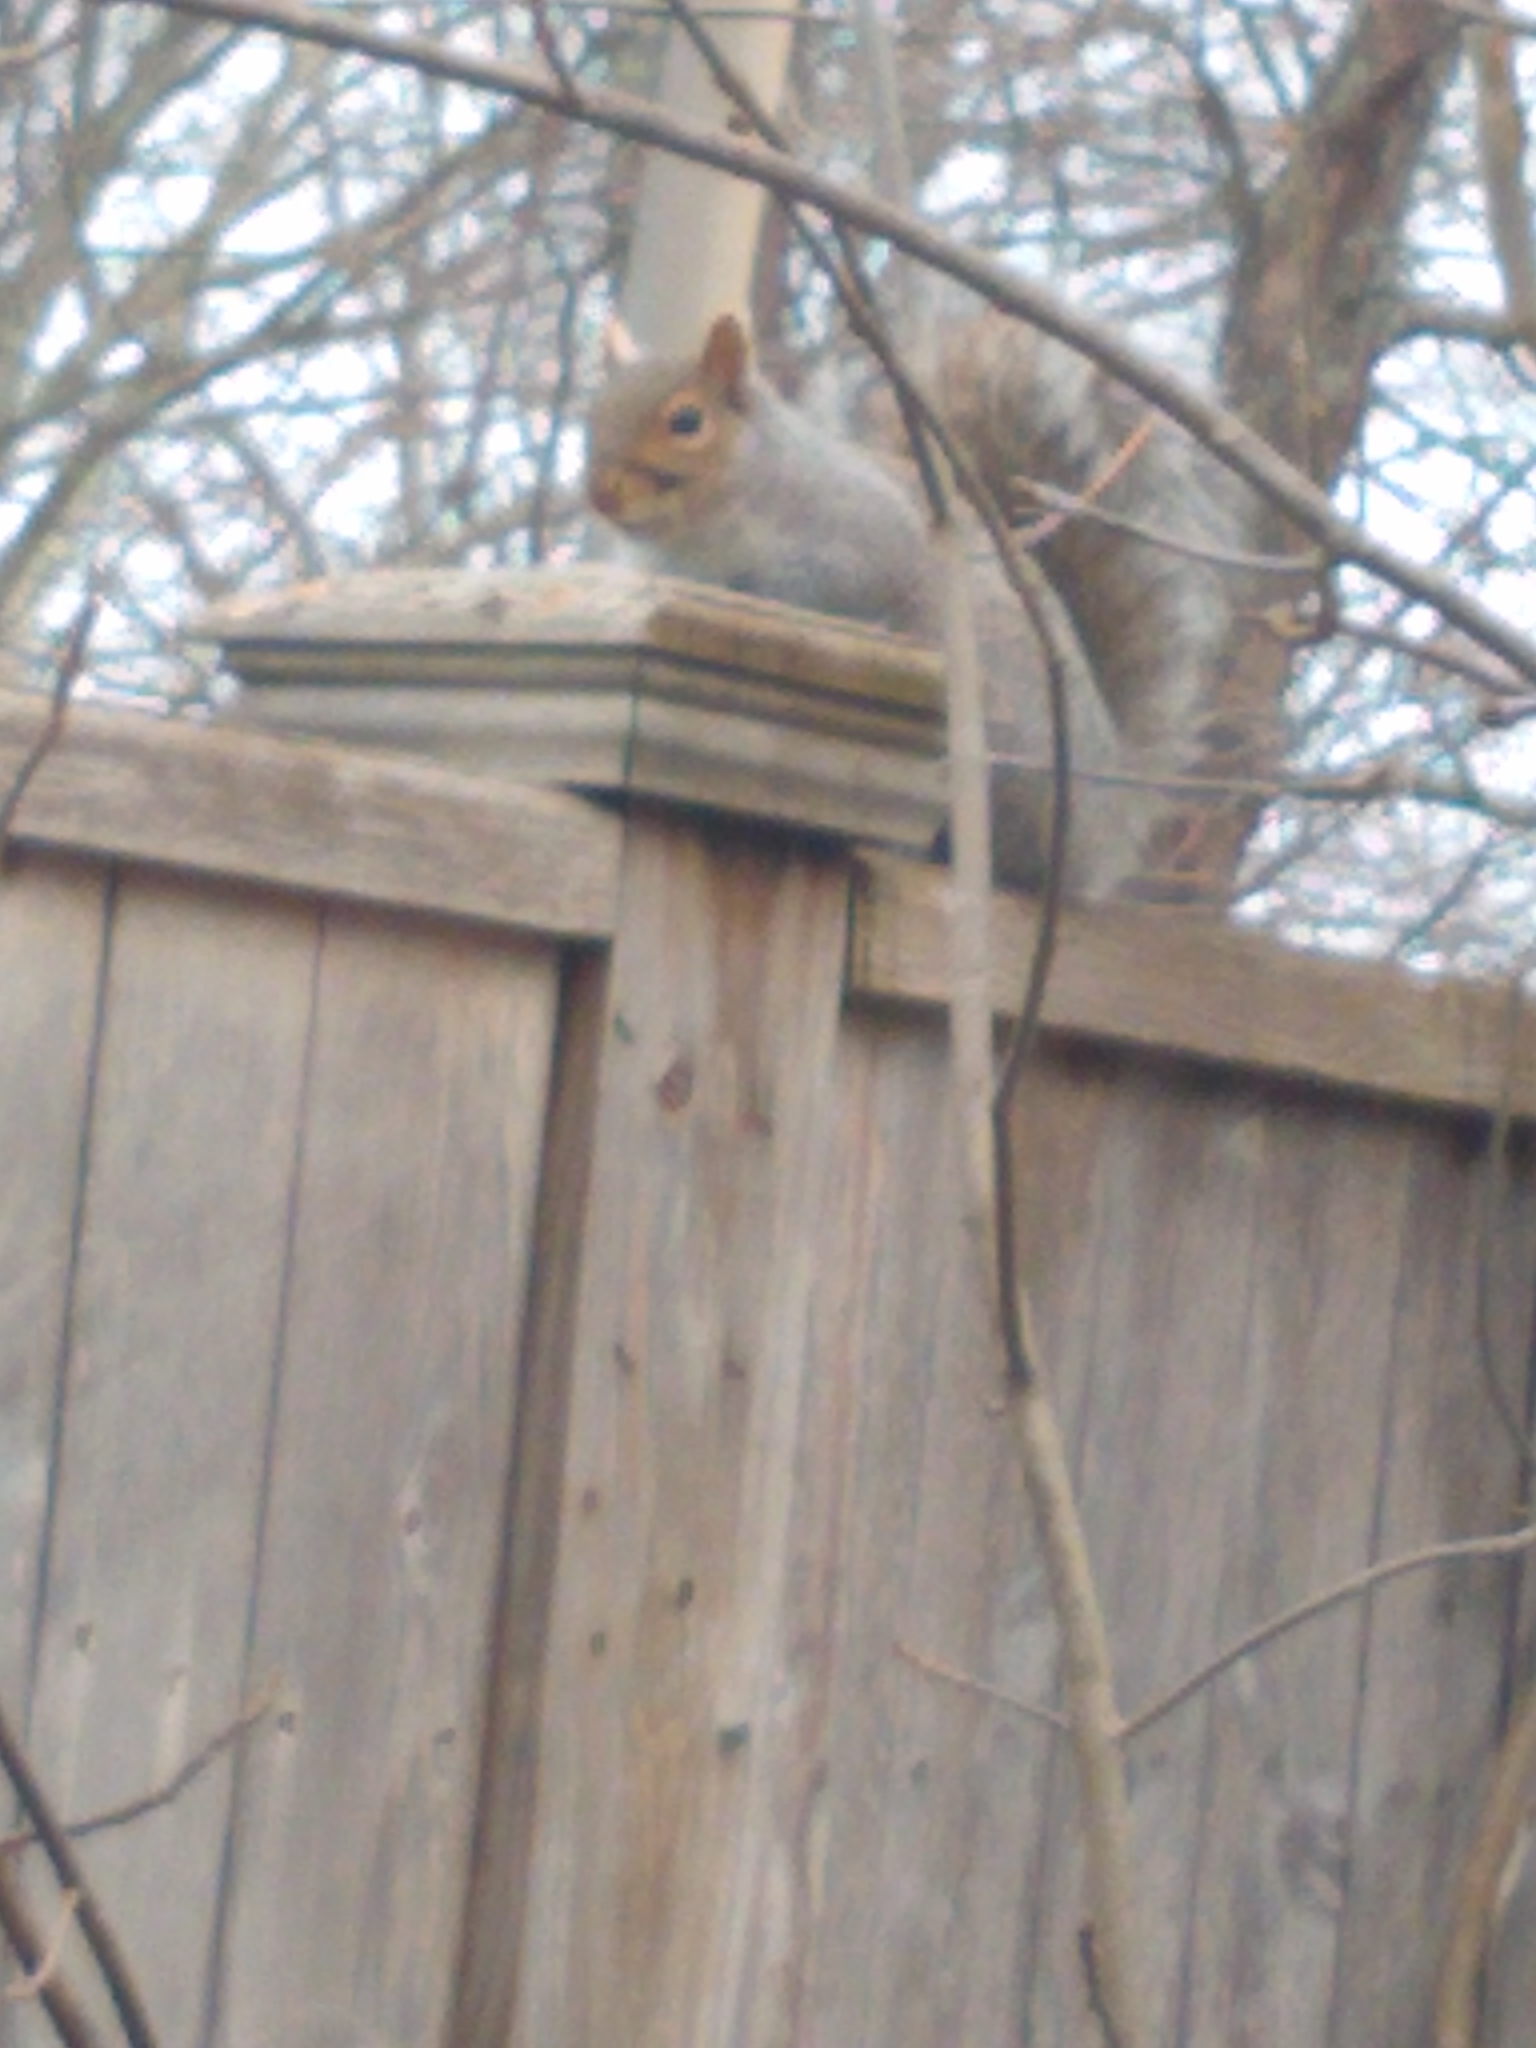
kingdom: Animalia
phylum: Chordata
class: Mammalia
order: Rodentia
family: Sciuridae
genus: Sciurus
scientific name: Sciurus carolinensis
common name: Eastern gray squirrel
